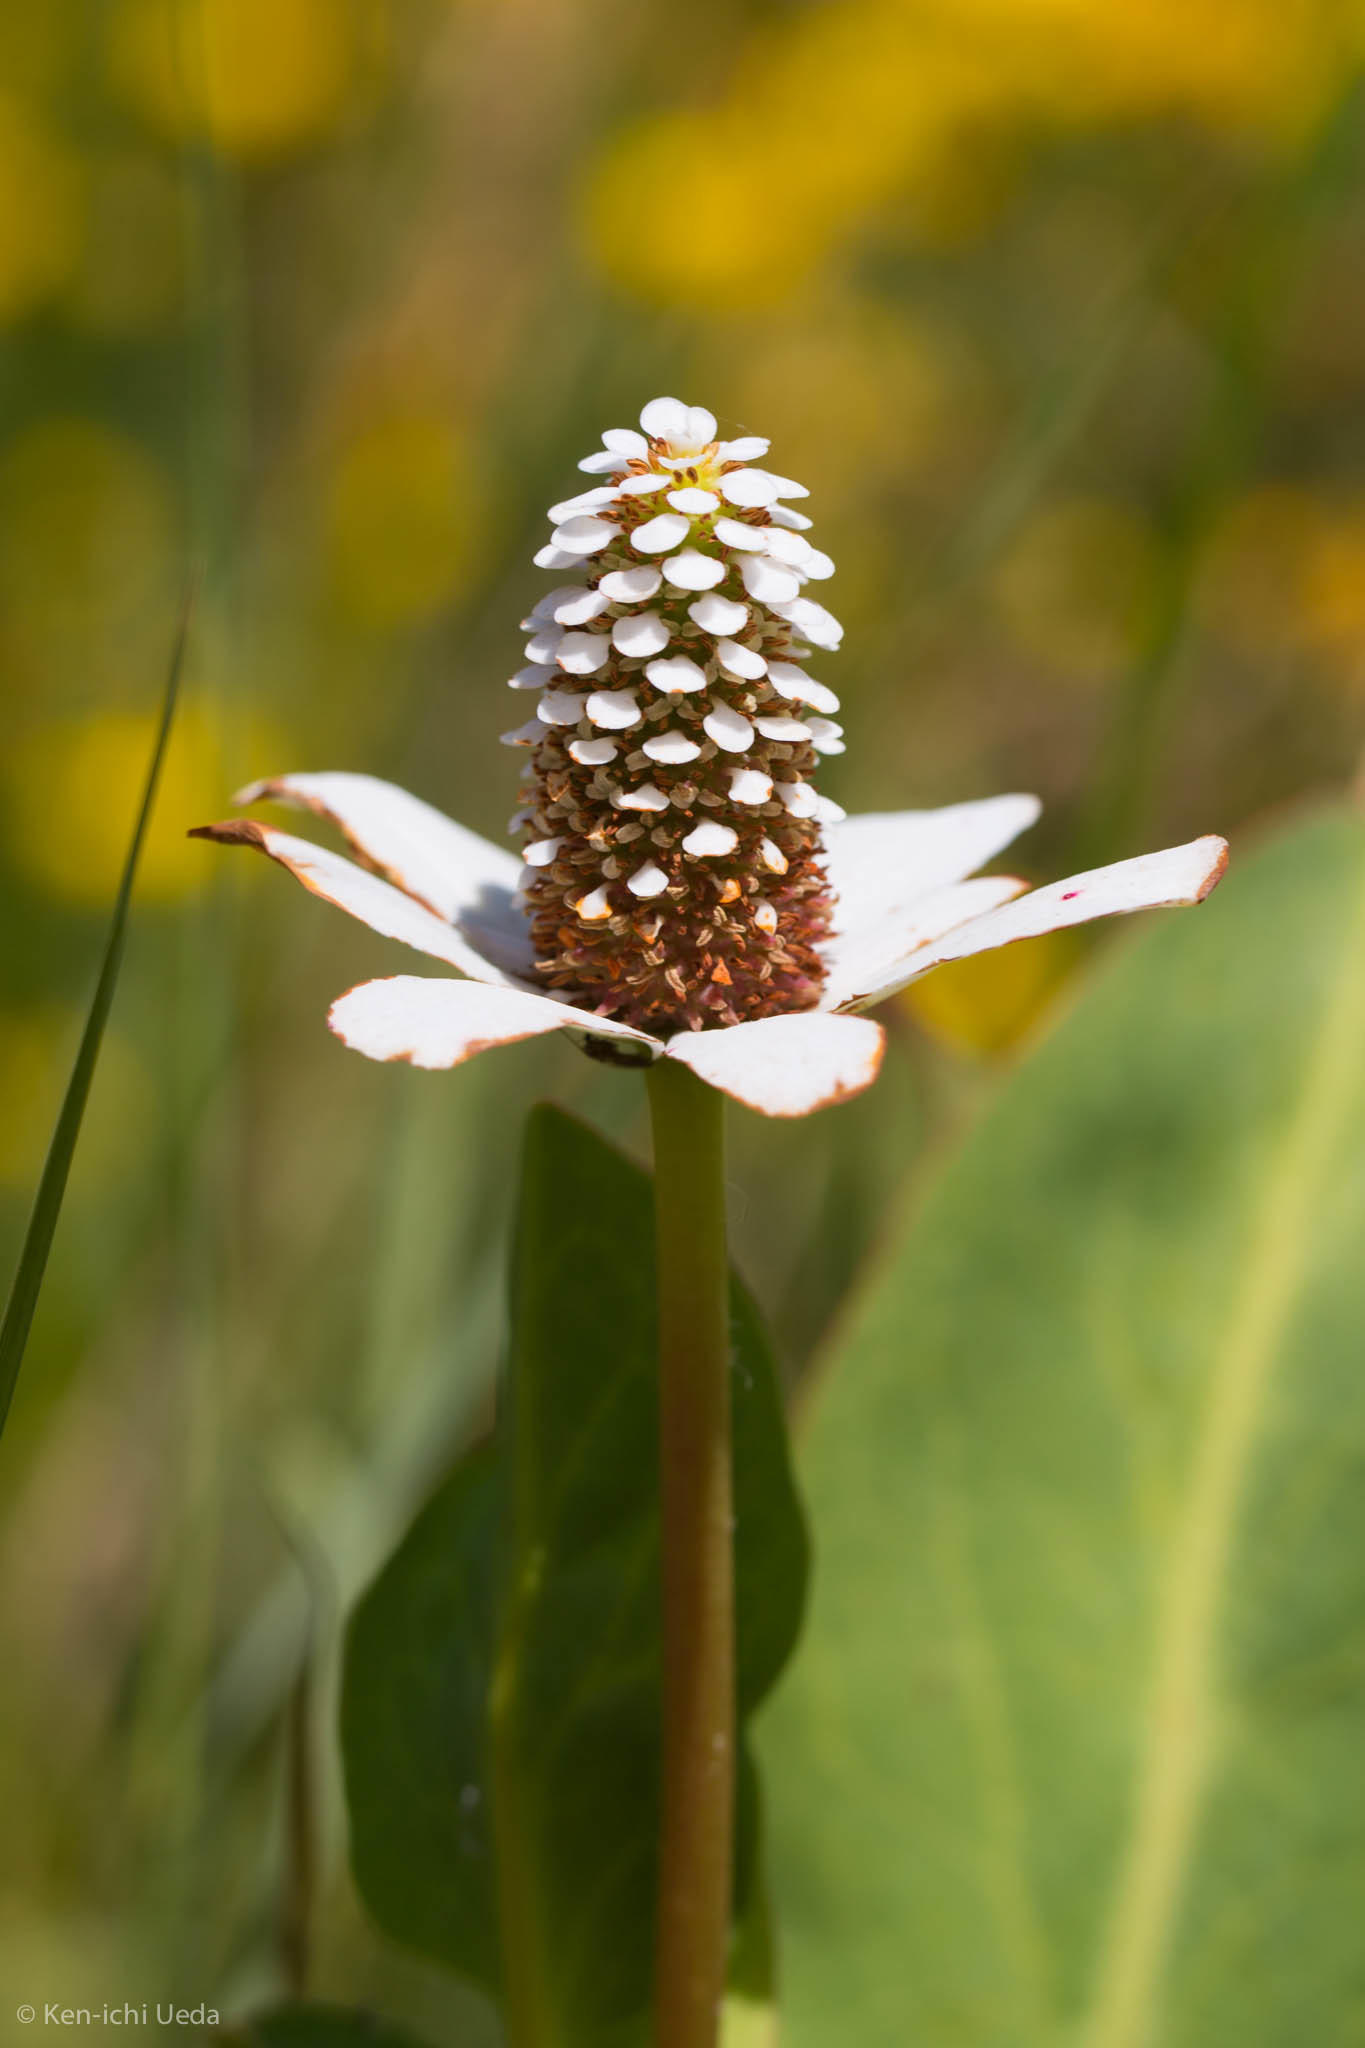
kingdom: Plantae
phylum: Tracheophyta
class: Magnoliopsida
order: Piperales
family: Saururaceae
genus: Anemopsis
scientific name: Anemopsis californica
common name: Apache-beads
